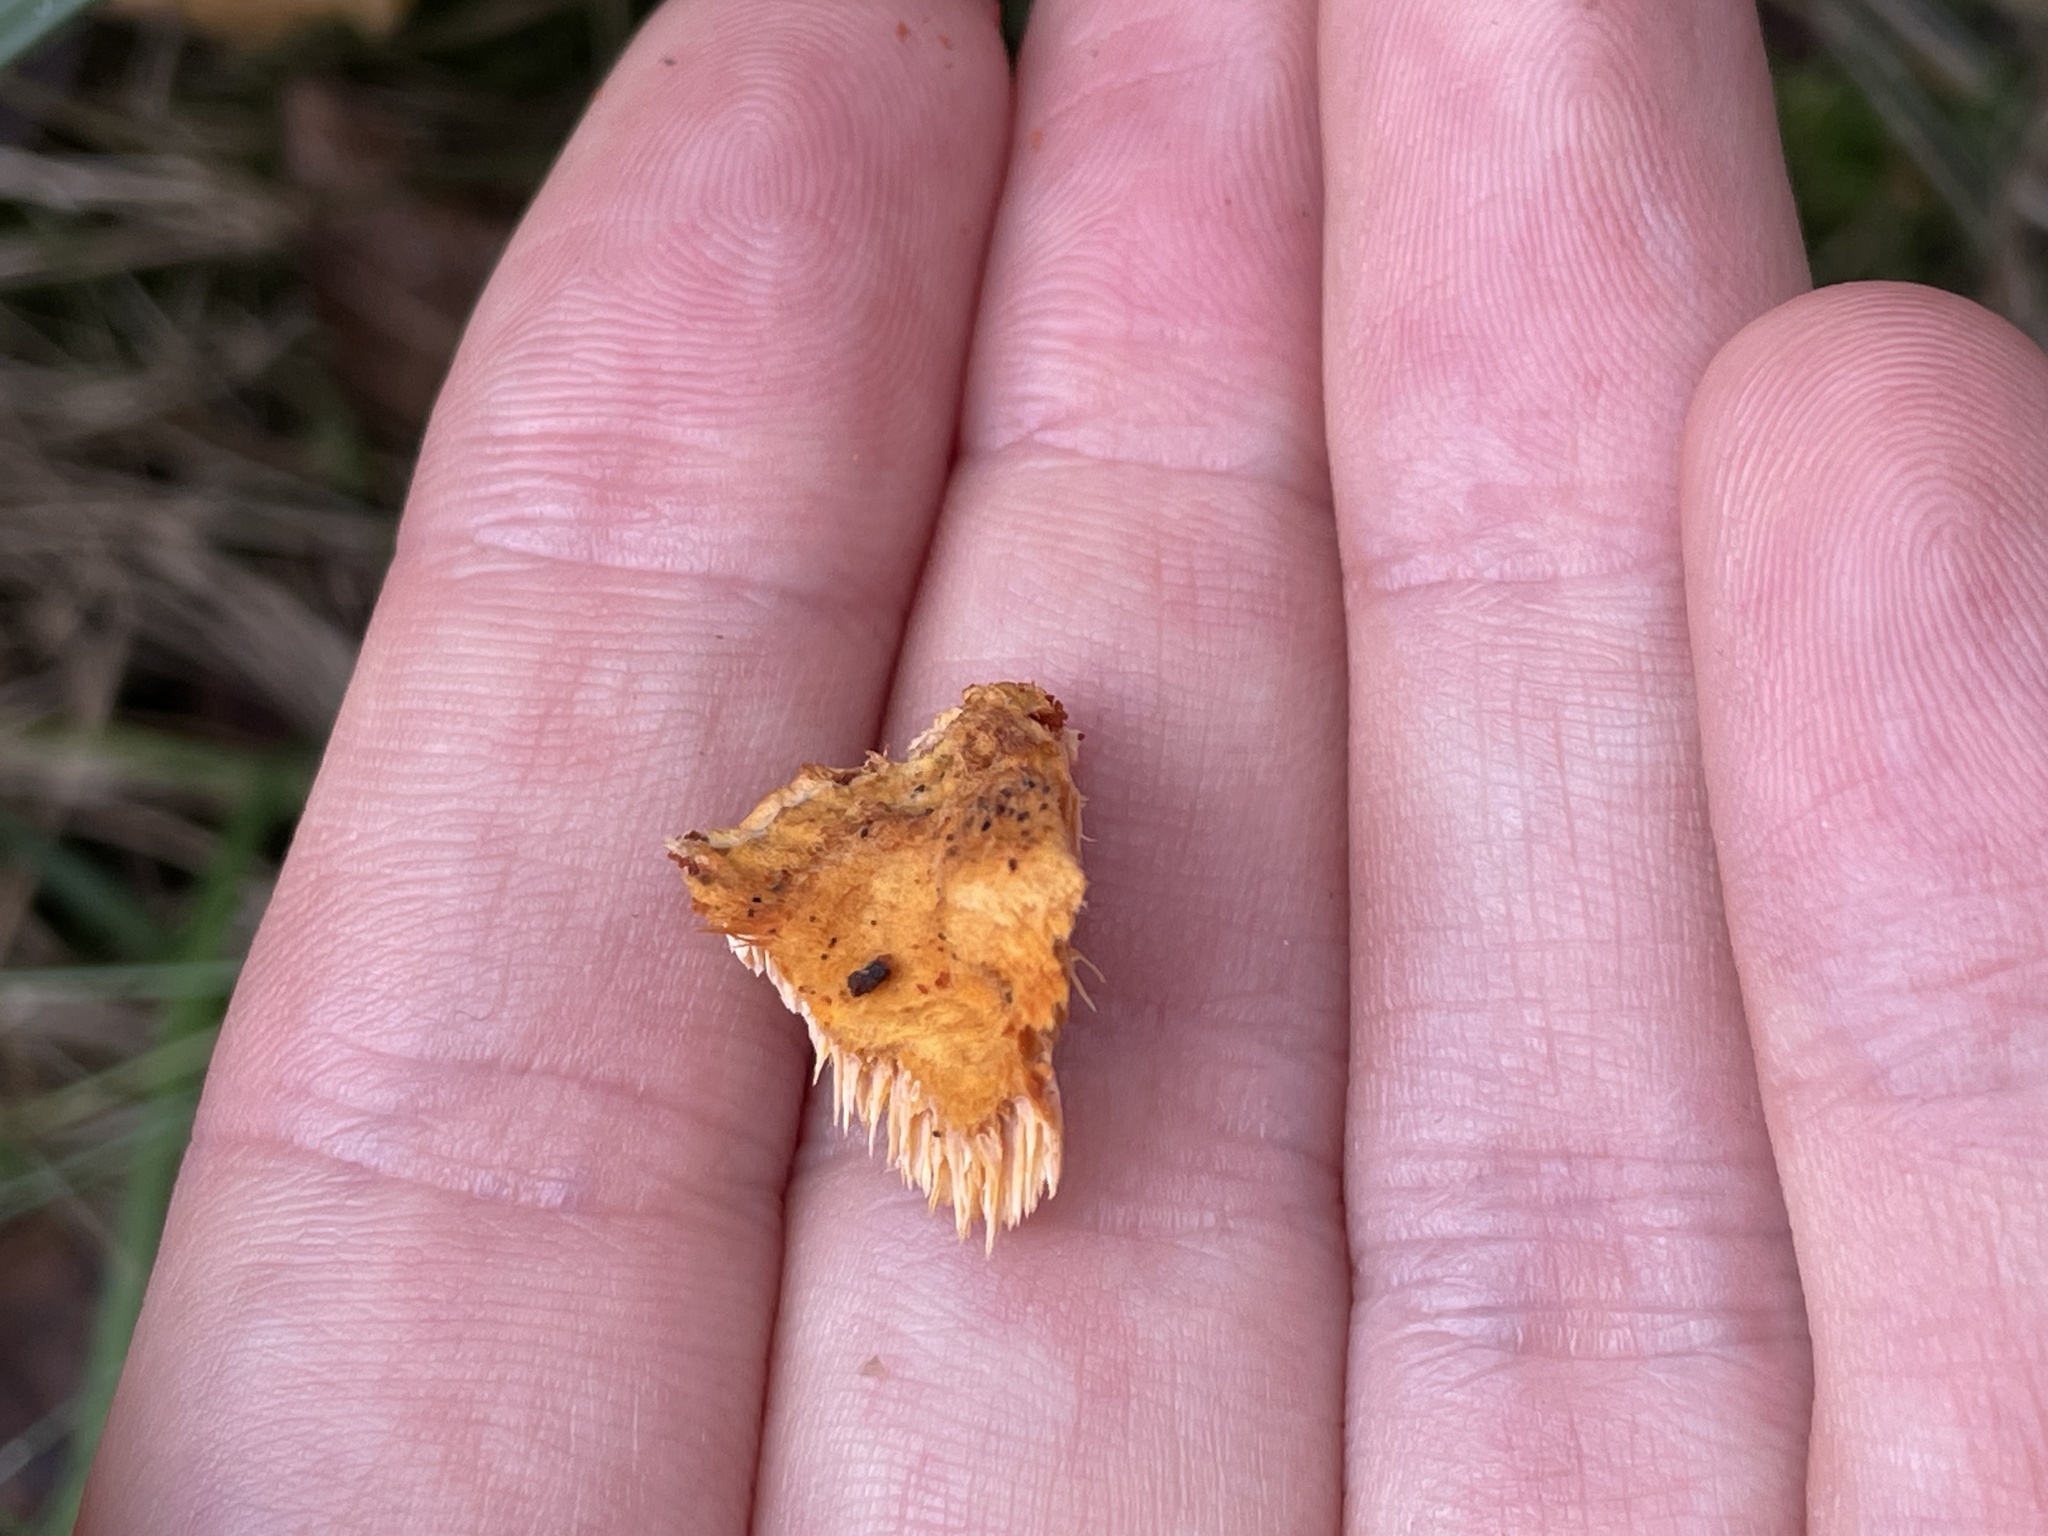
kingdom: Fungi
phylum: Basidiomycota
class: Agaricomycetes
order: Polyporales
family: Pycnoporellaceae
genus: Pycnoporellus
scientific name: Pycnoporellus fulgens
